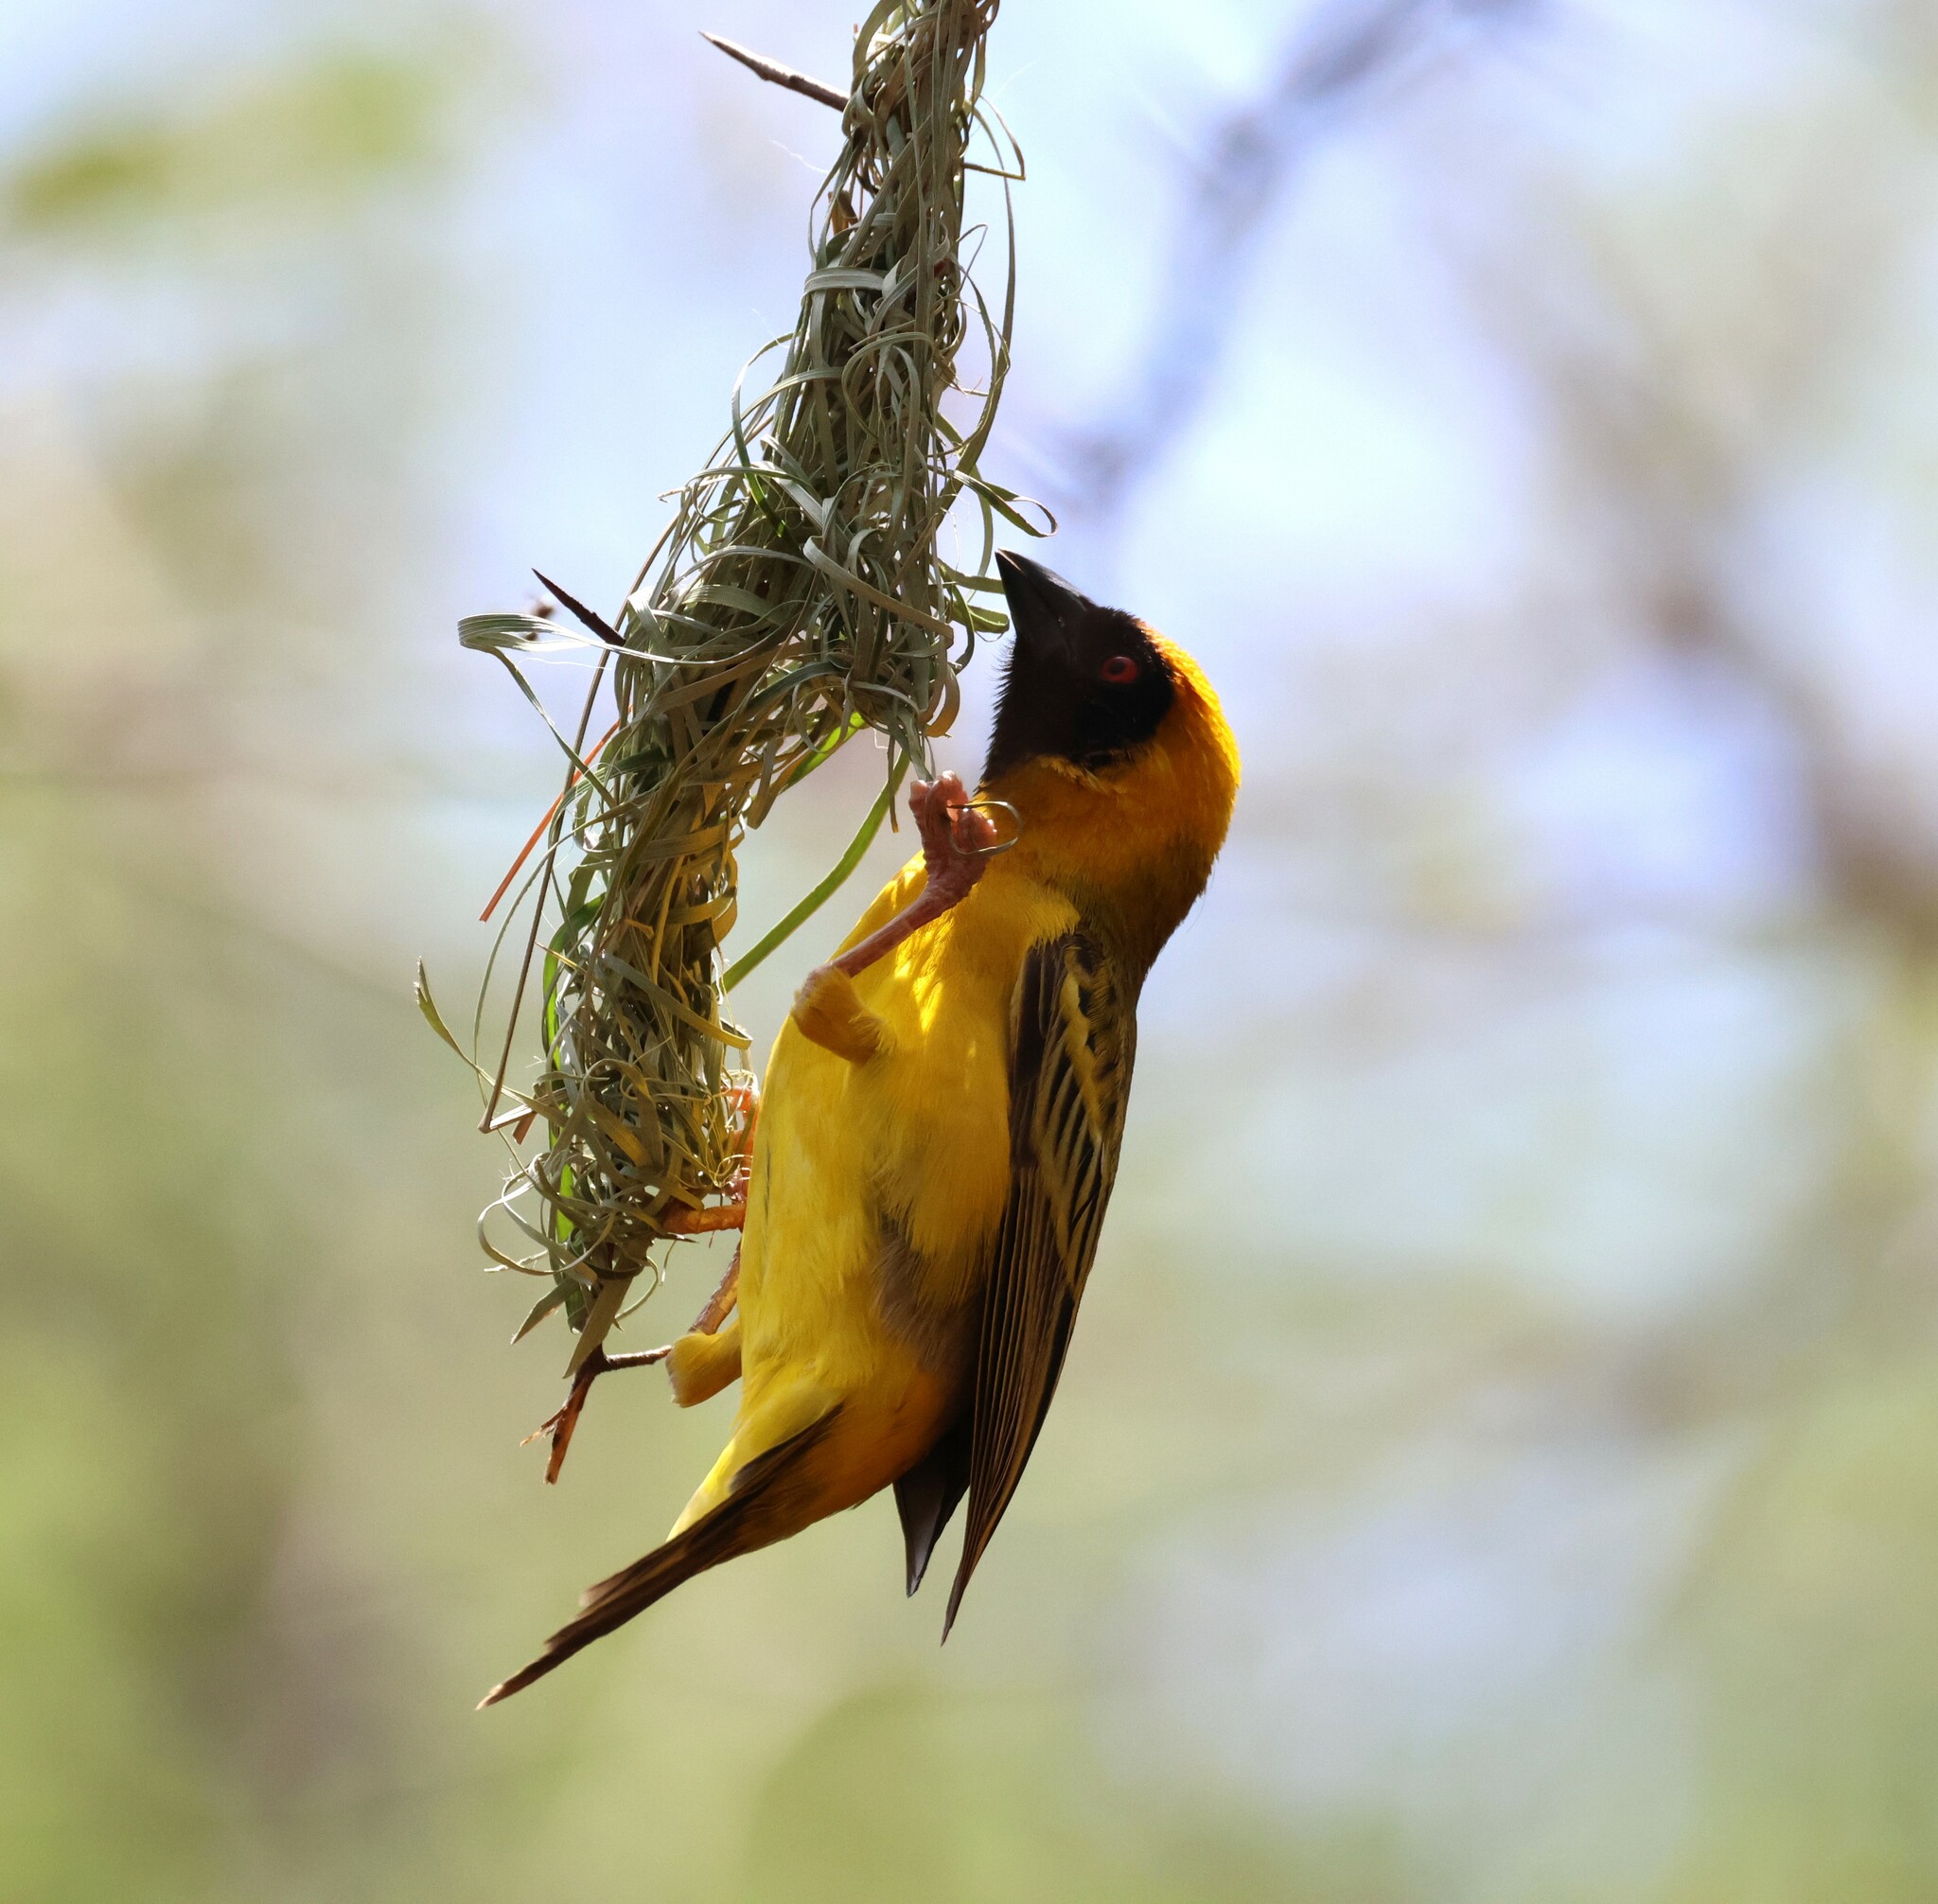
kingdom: Animalia
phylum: Chordata
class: Aves
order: Passeriformes
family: Ploceidae
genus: Ploceus
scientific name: Ploceus velatus
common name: Southern masked weaver
